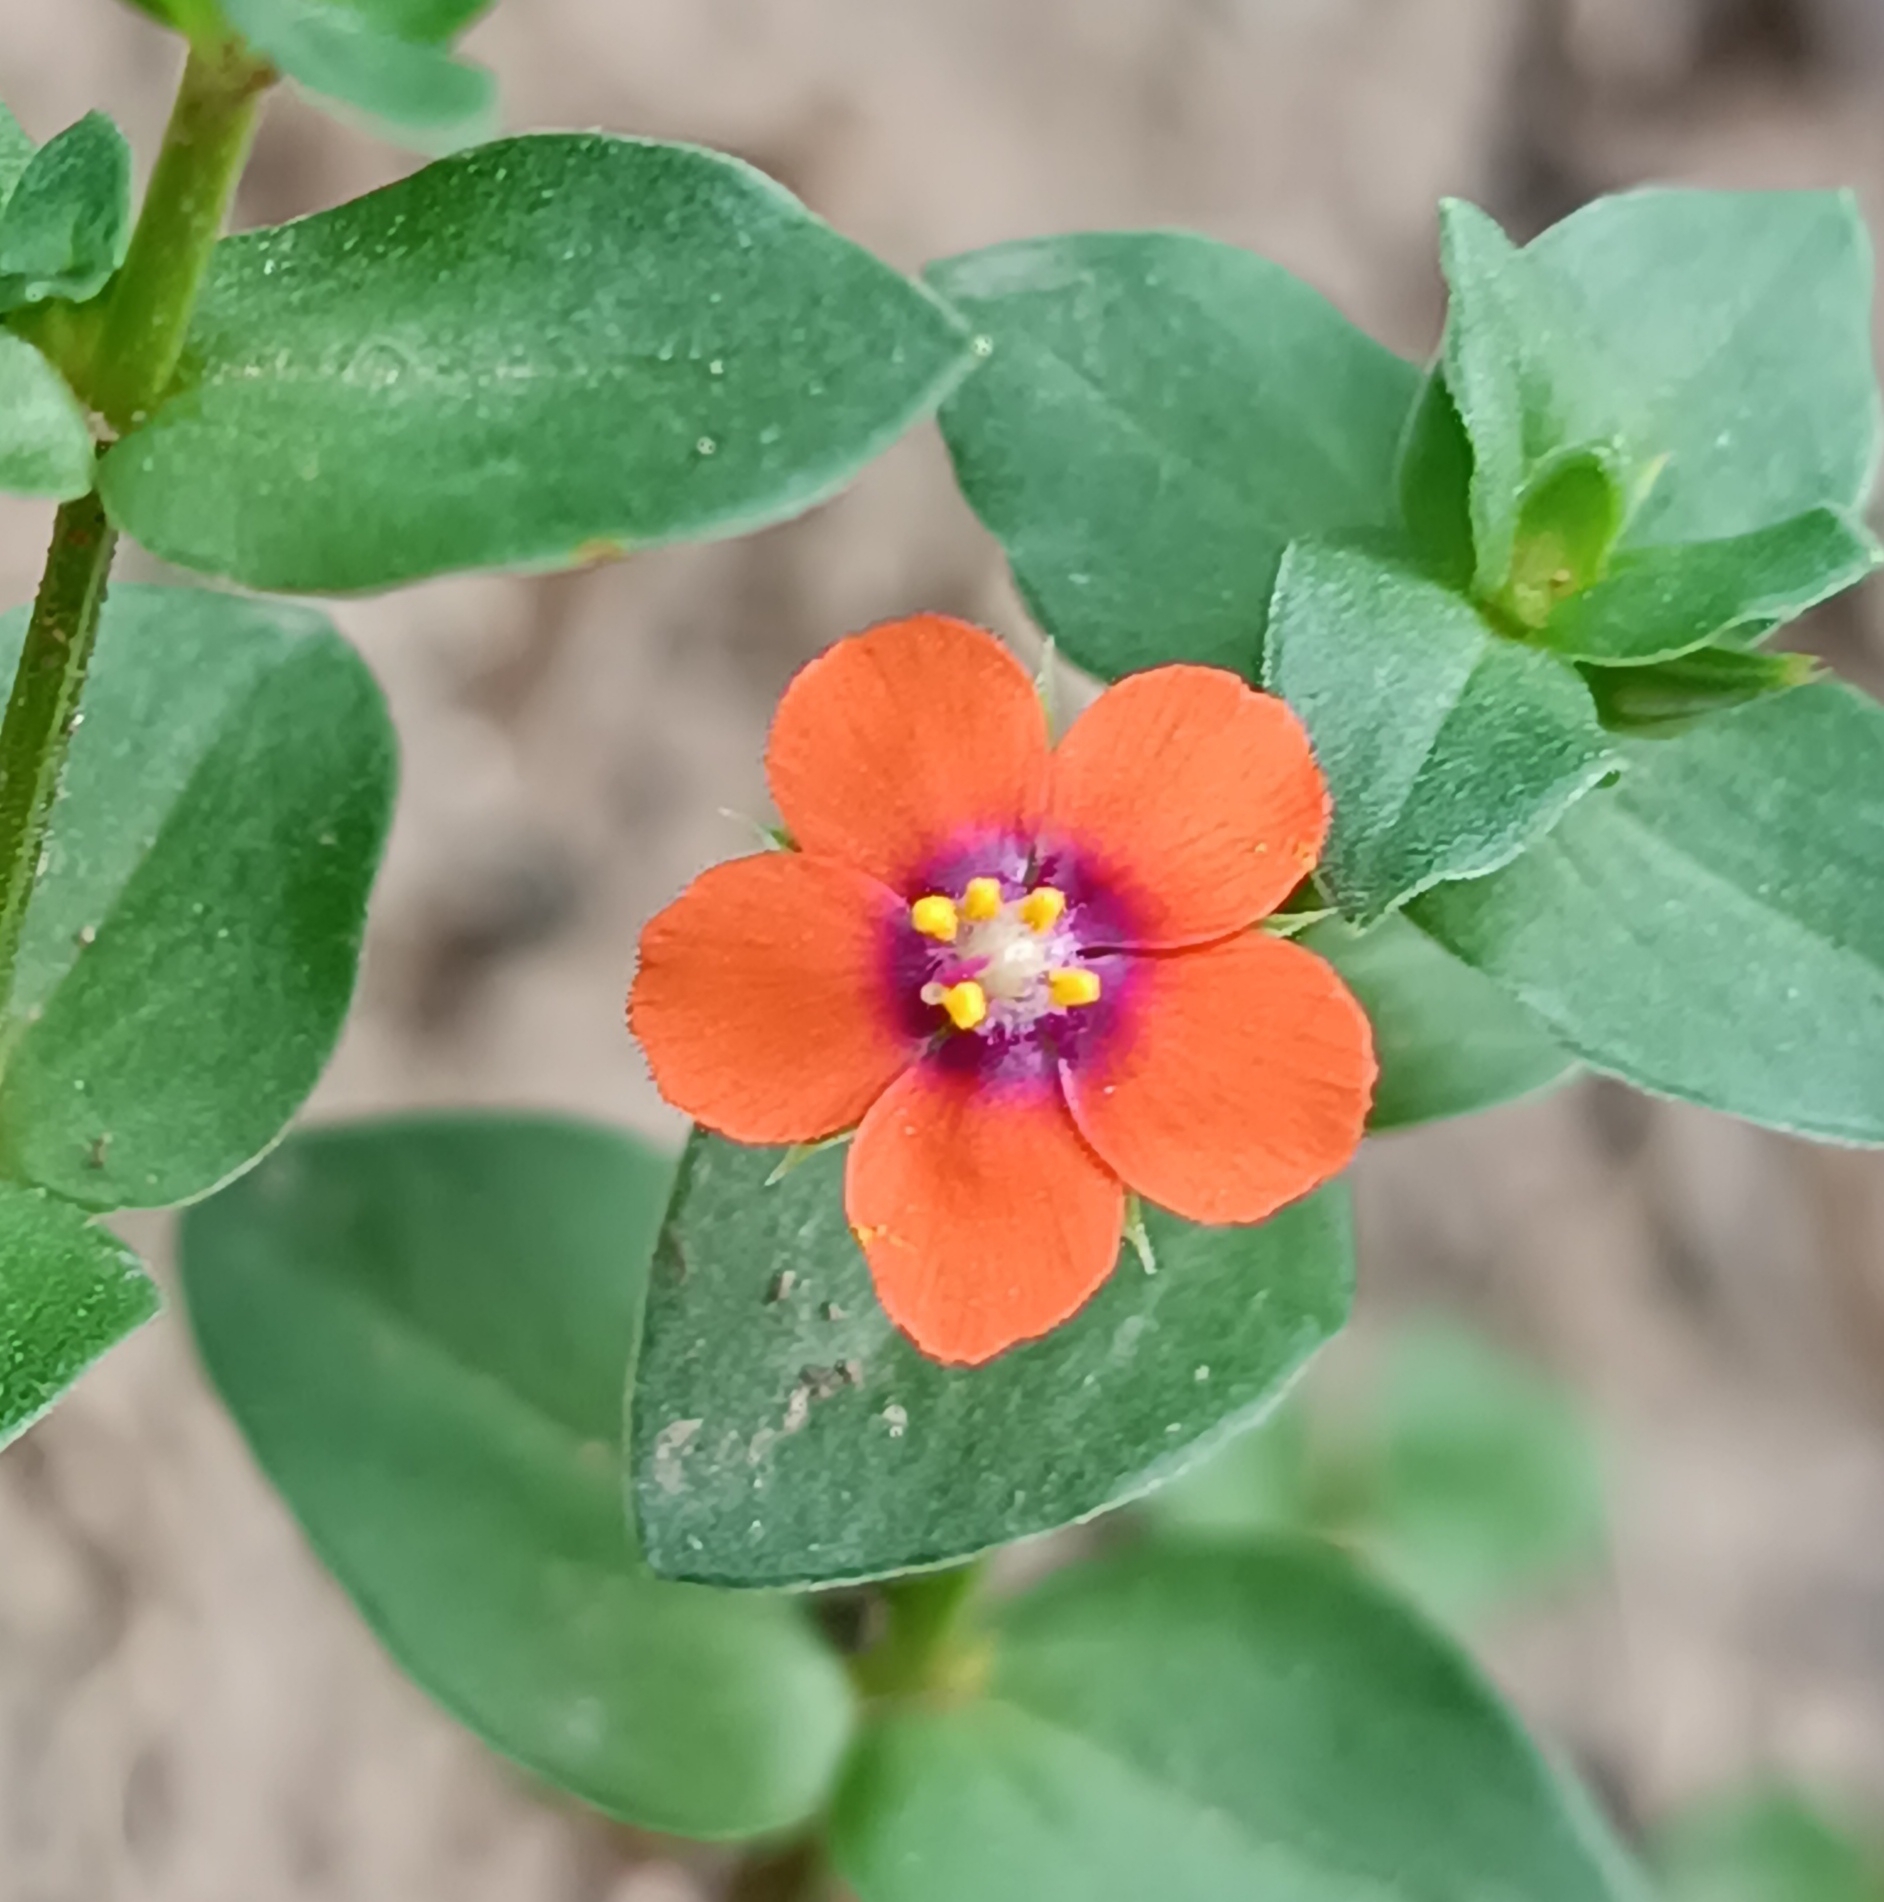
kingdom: Plantae
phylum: Tracheophyta
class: Magnoliopsida
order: Ericales
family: Primulaceae
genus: Lysimachia
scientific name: Lysimachia arvensis
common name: Scarlet pimpernel
